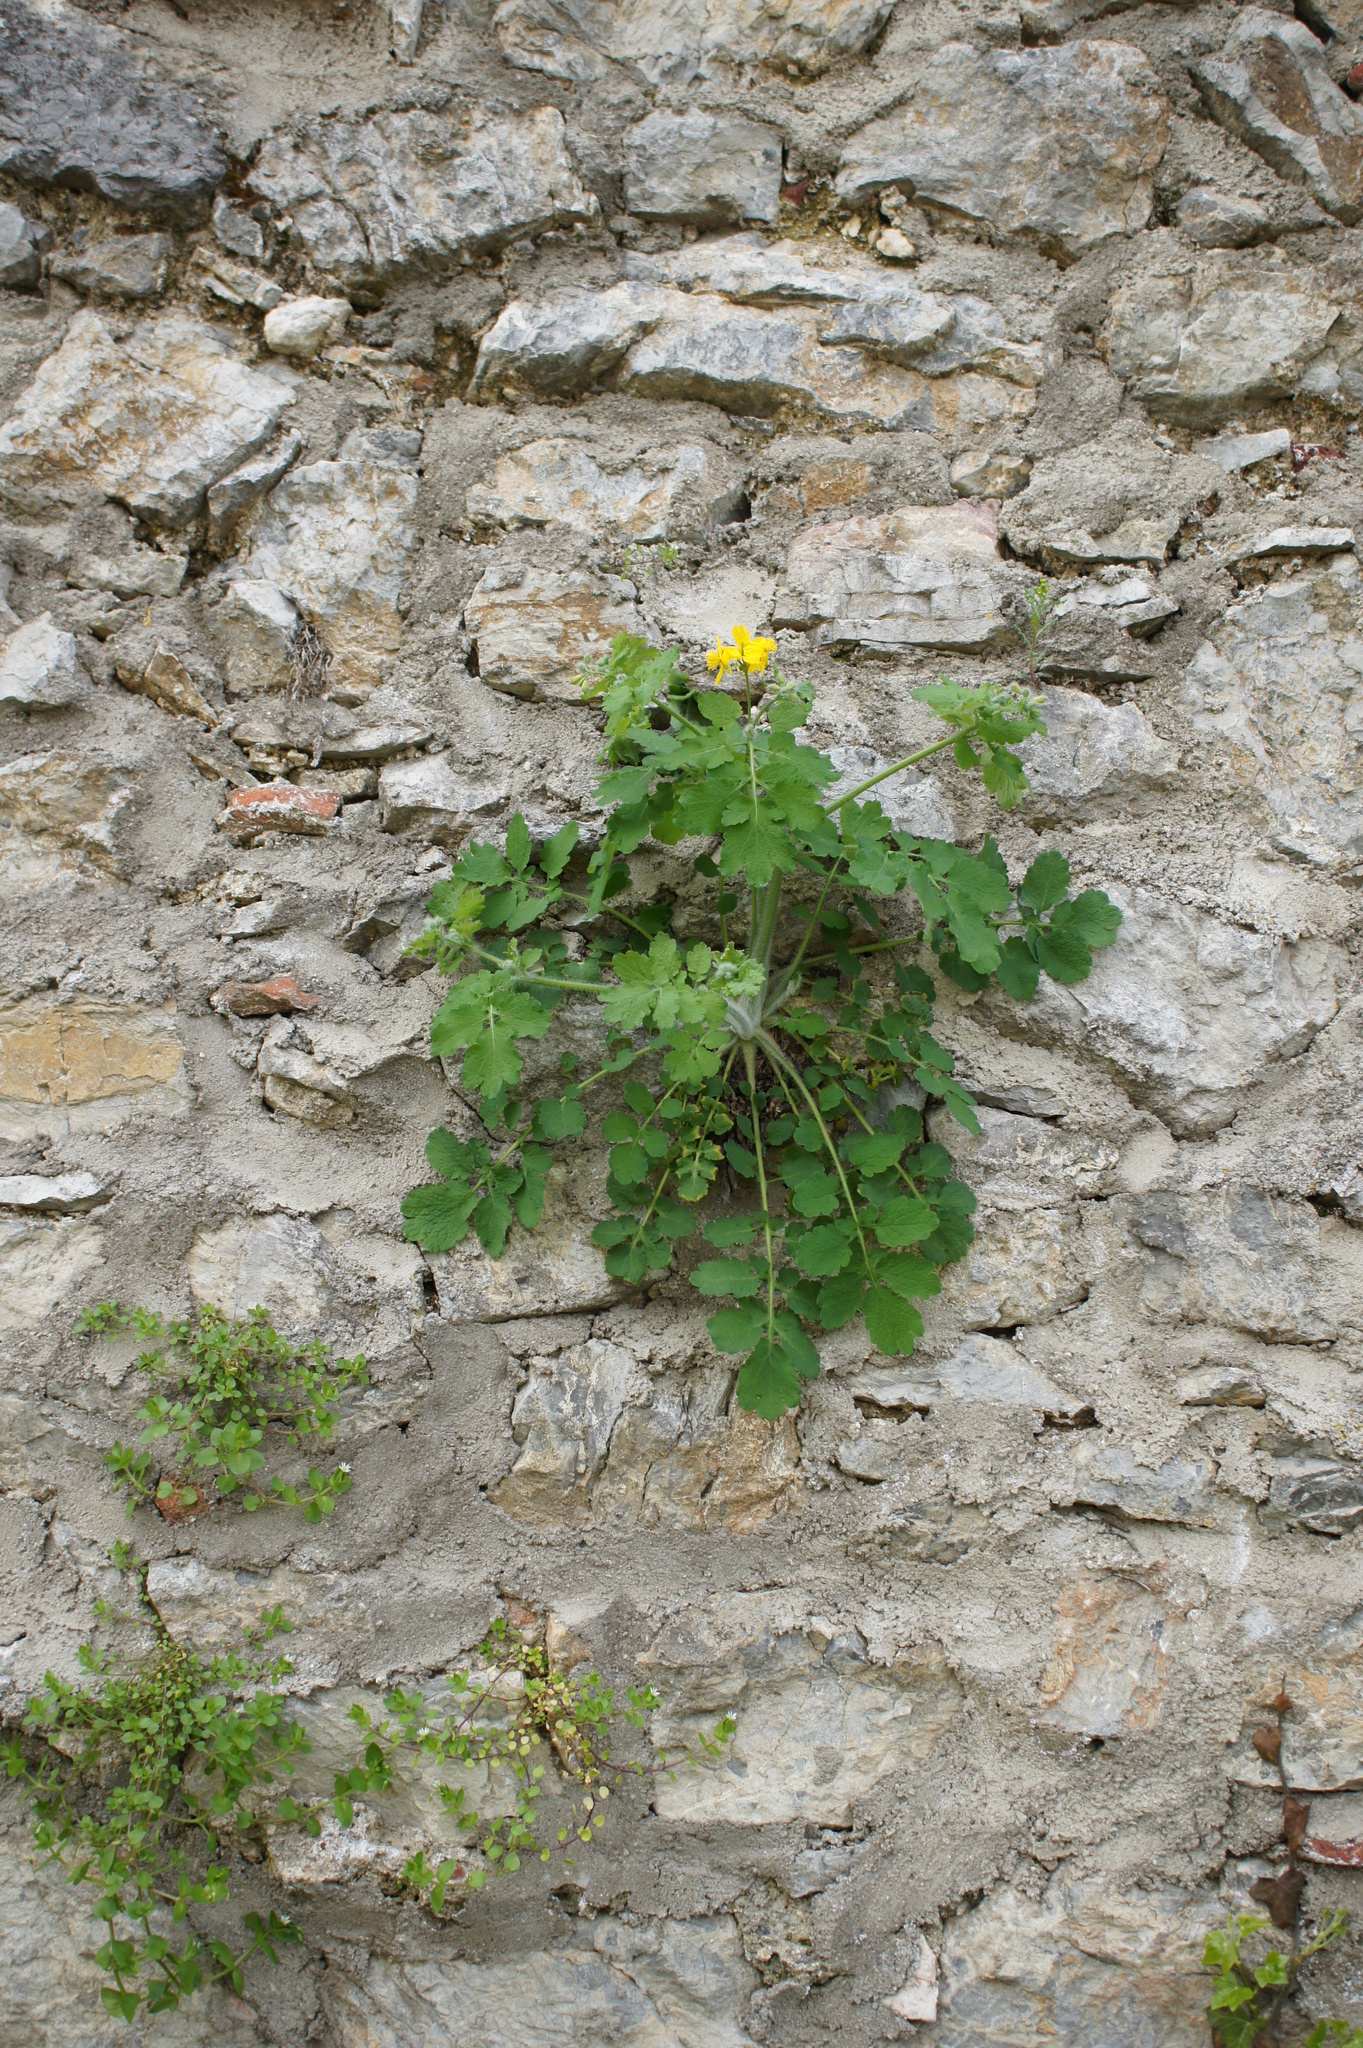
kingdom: Plantae
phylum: Tracheophyta
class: Magnoliopsida
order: Ranunculales
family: Papaveraceae
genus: Chelidonium
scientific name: Chelidonium majus
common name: Greater celandine
